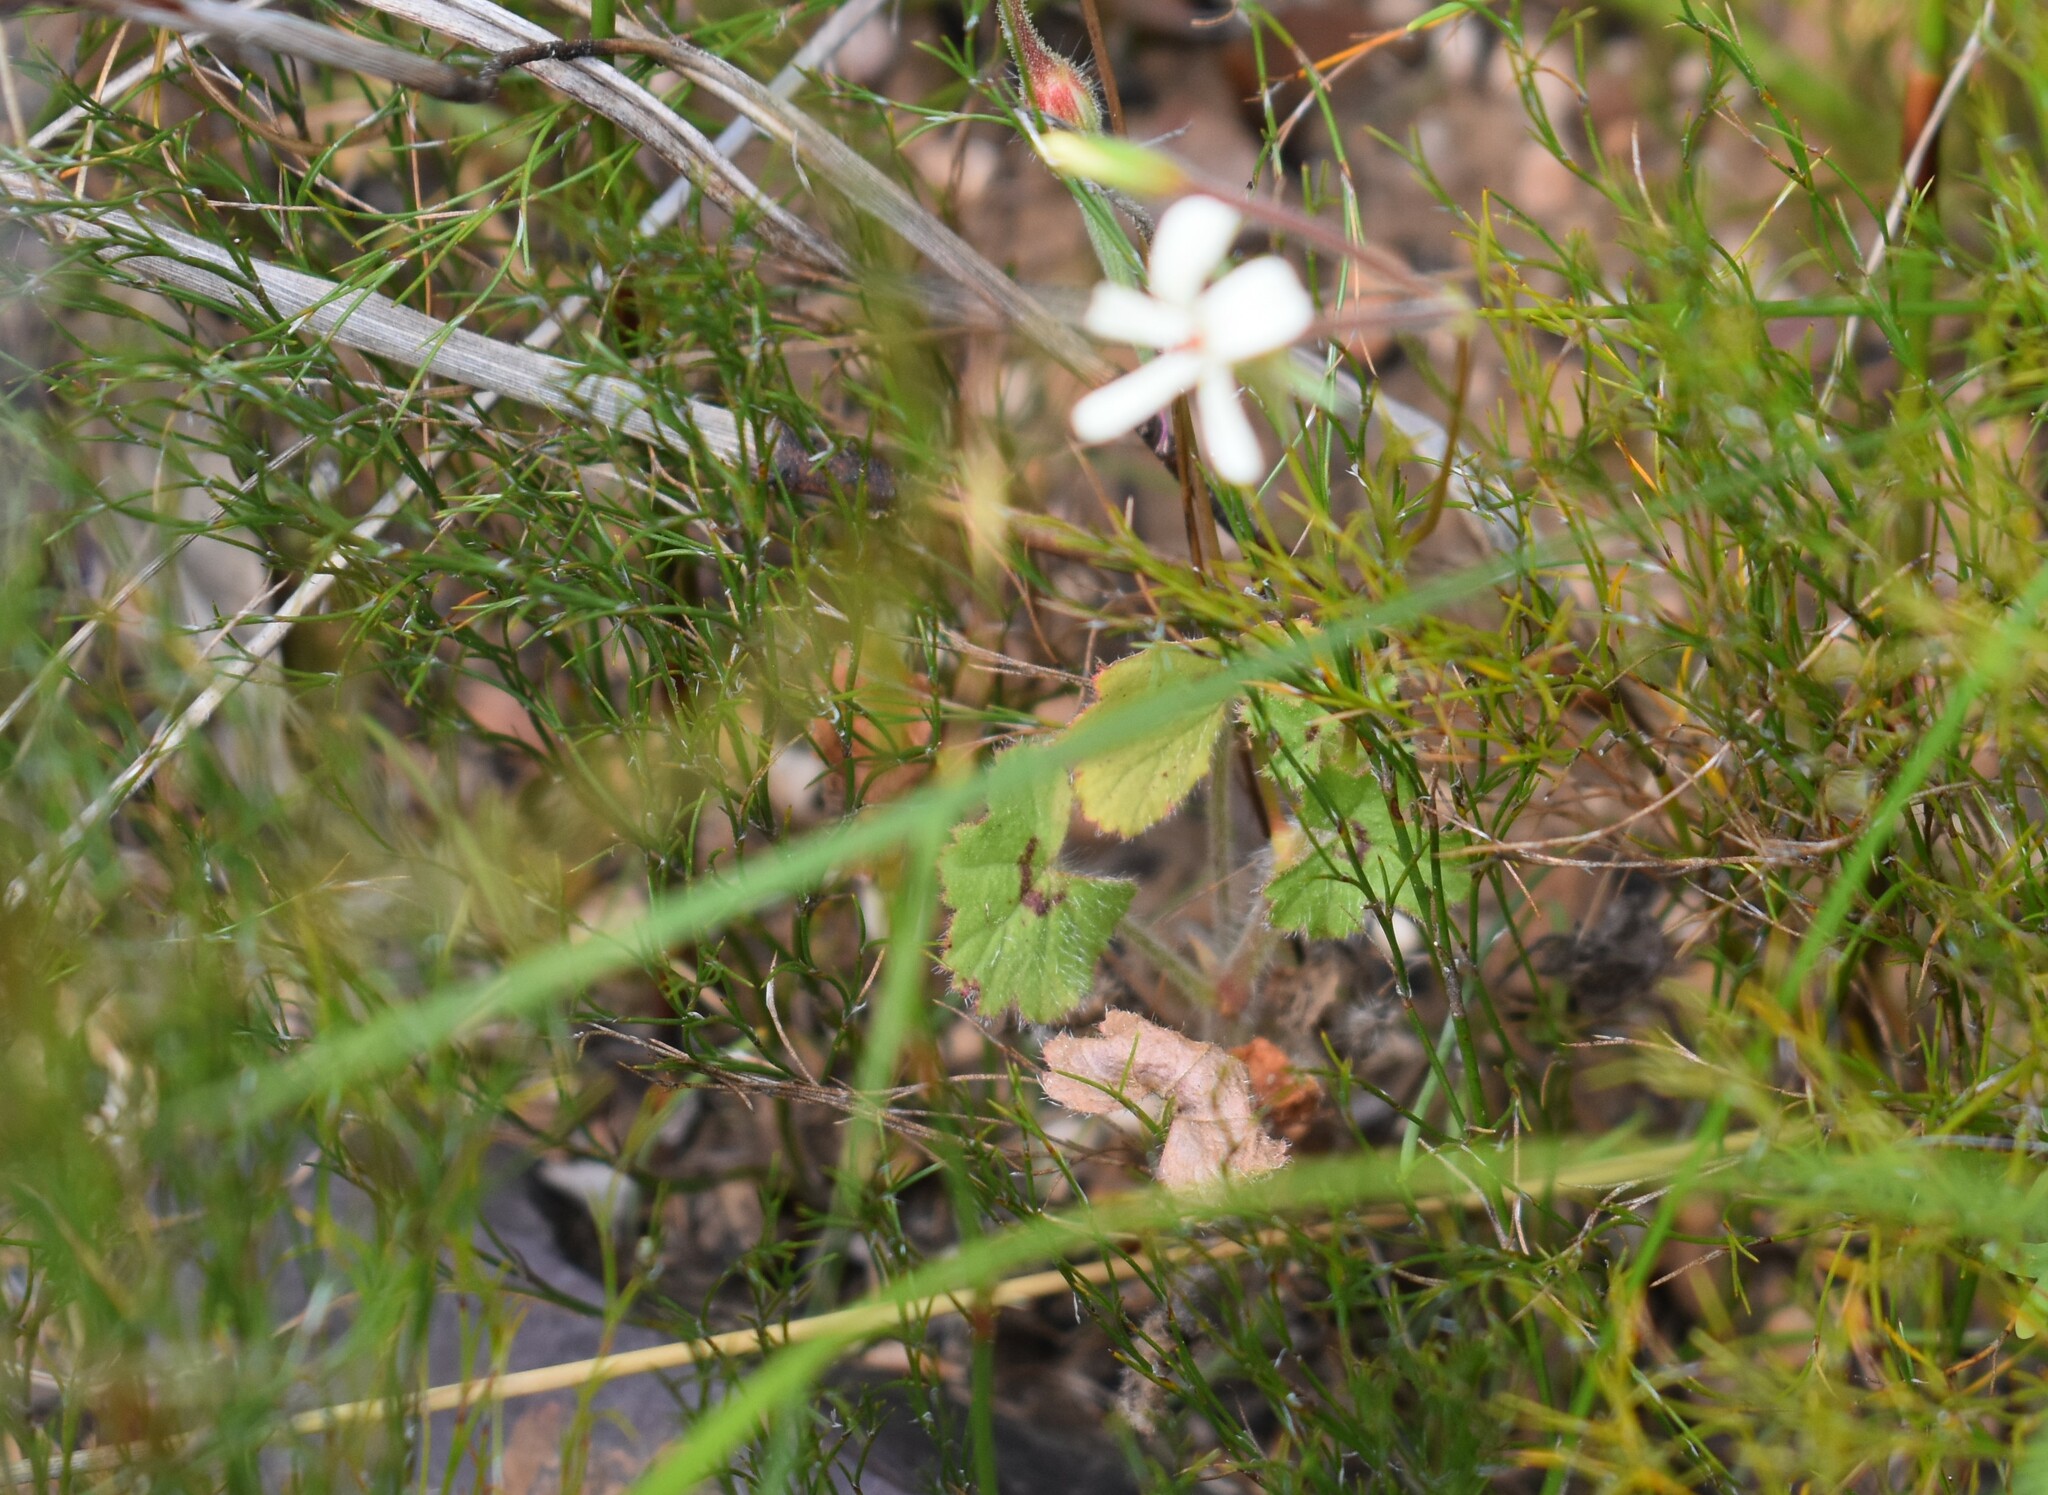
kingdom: Plantae
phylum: Tracheophyta
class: Magnoliopsida
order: Geraniales
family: Geraniaceae
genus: Pelargonium
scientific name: Pelargonium elongatum
